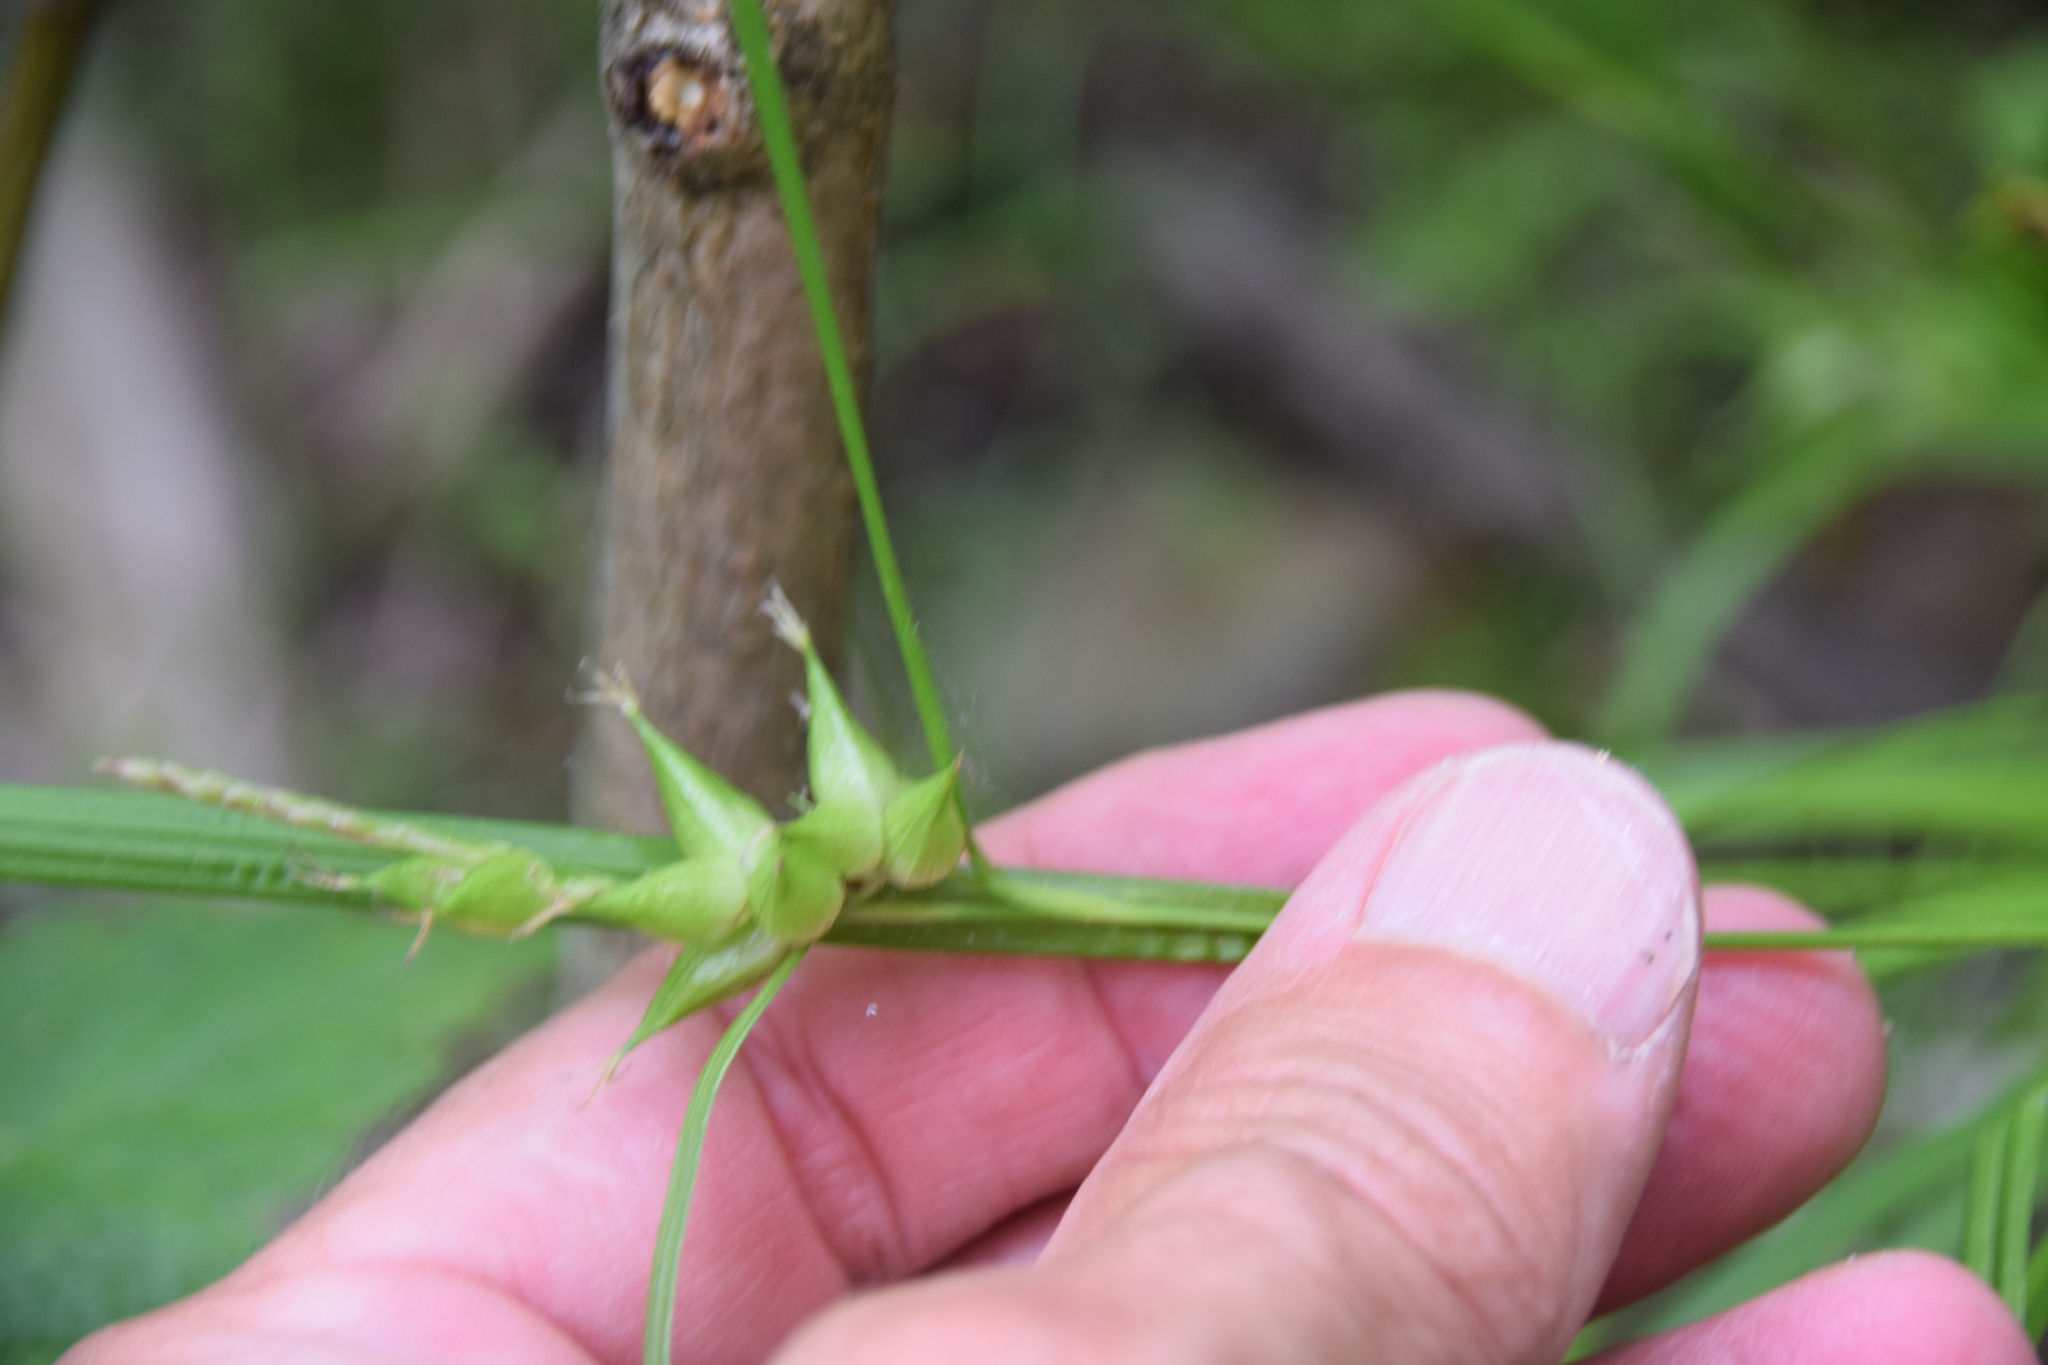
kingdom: Plantae
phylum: Tracheophyta
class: Liliopsida
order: Poales
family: Cyperaceae
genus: Carex
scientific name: Carex intumescens
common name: Greater bladder sedge
